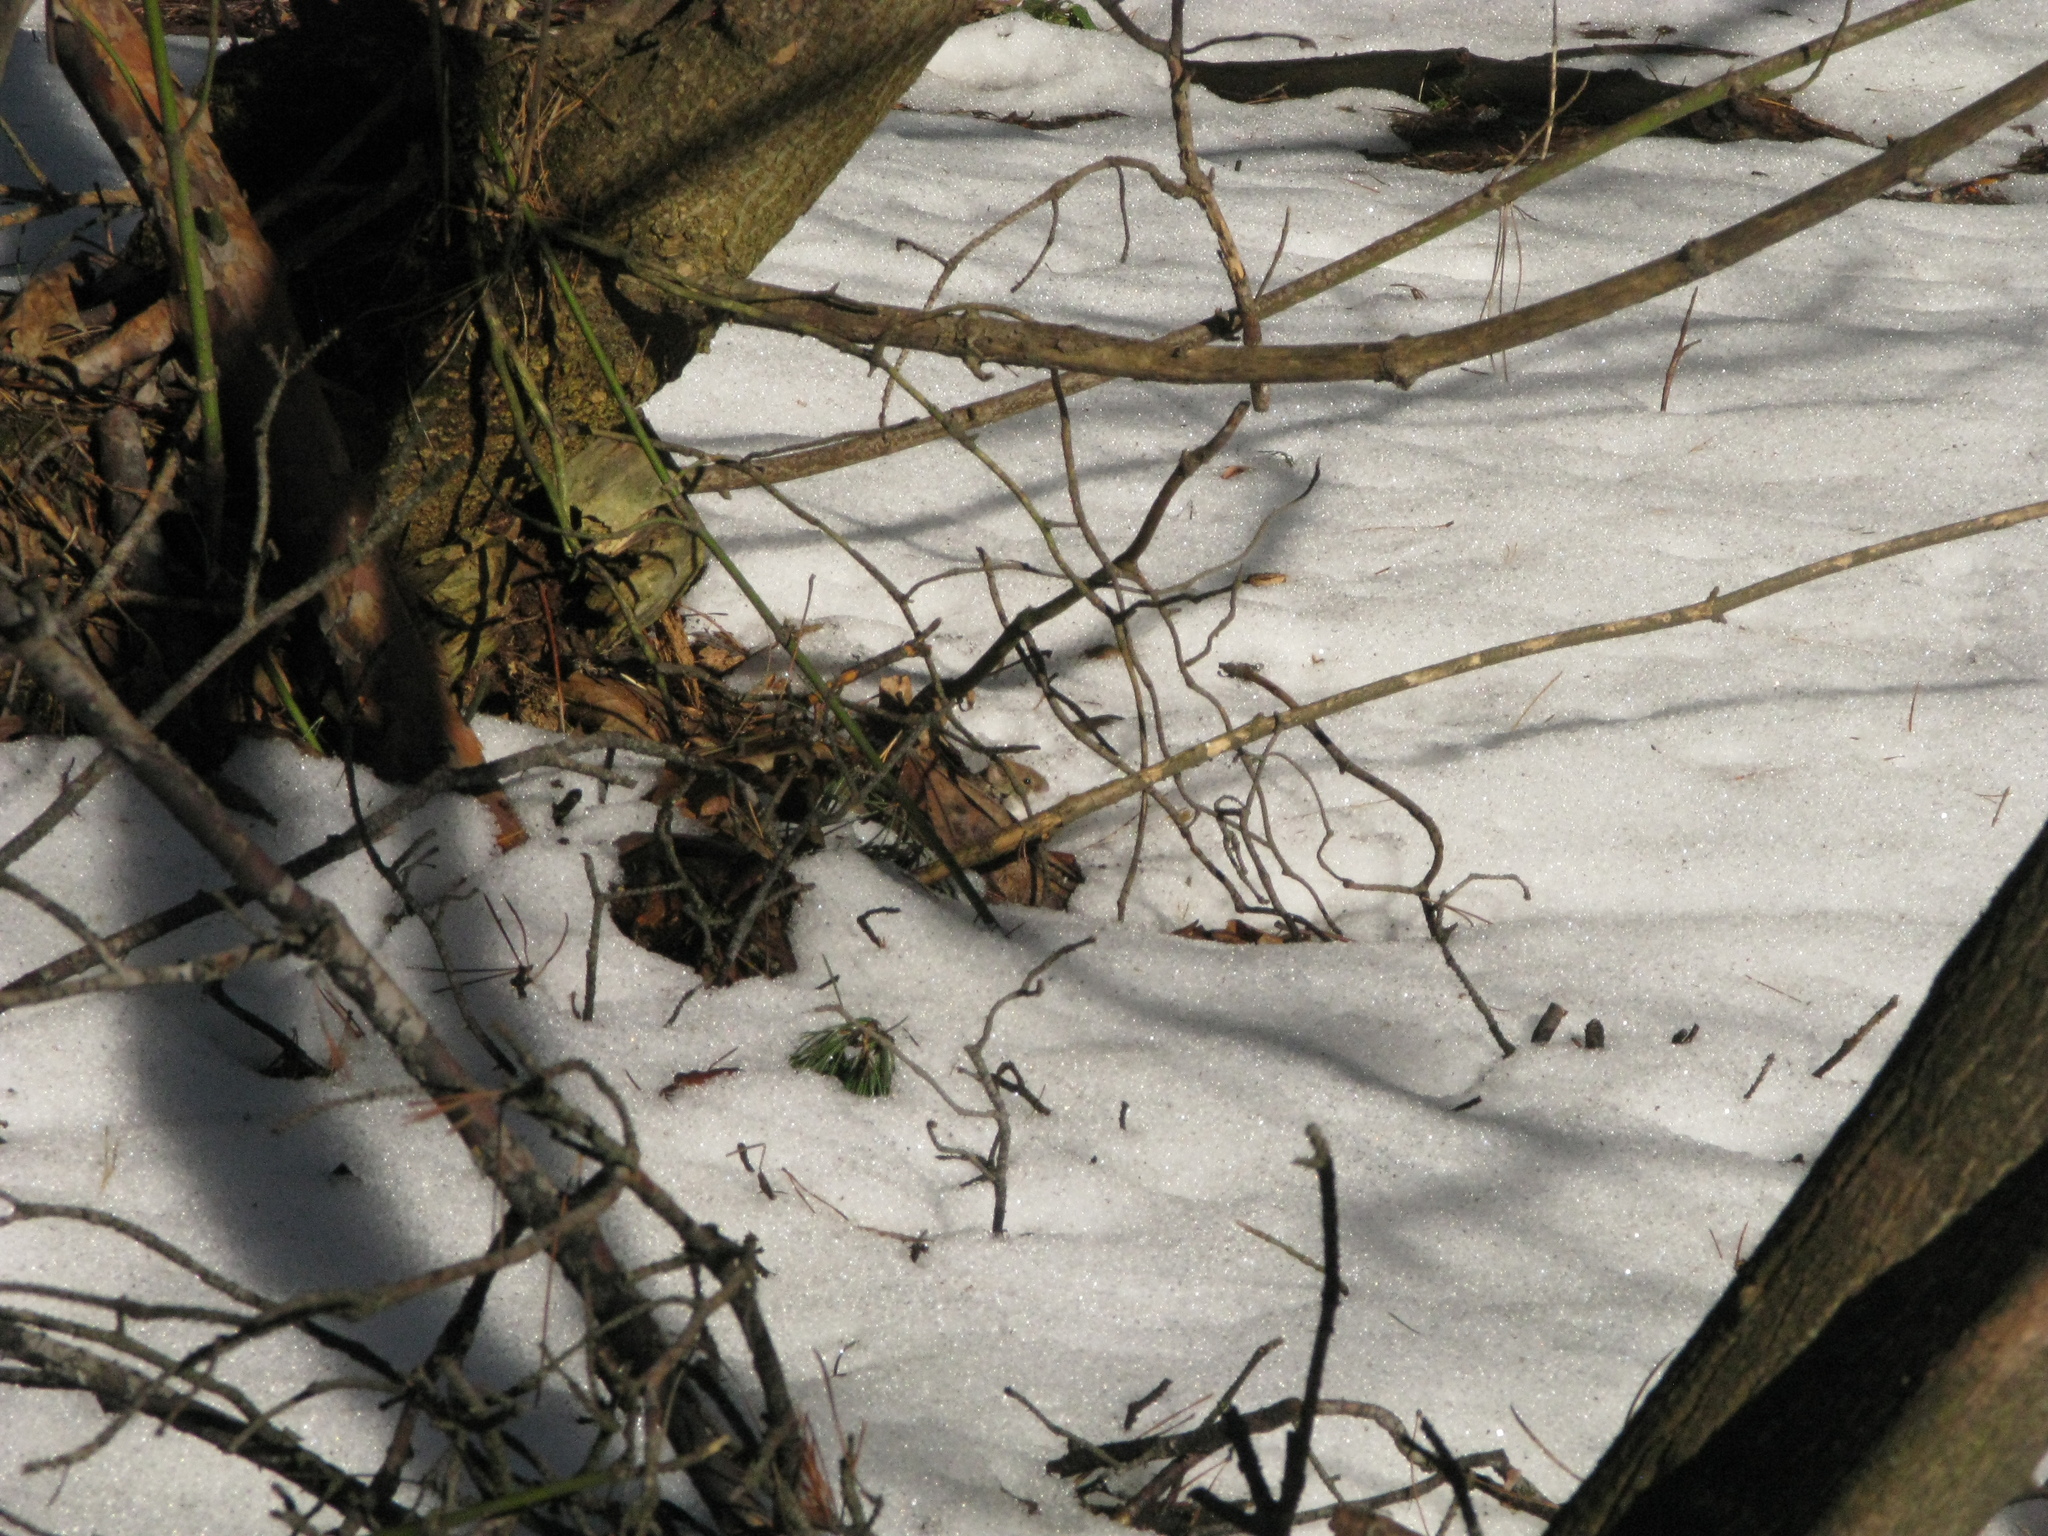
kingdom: Animalia
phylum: Chordata
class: Mammalia
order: Rodentia
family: Cricetidae
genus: Myodes
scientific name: Myodes glareolus
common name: Bank vole
